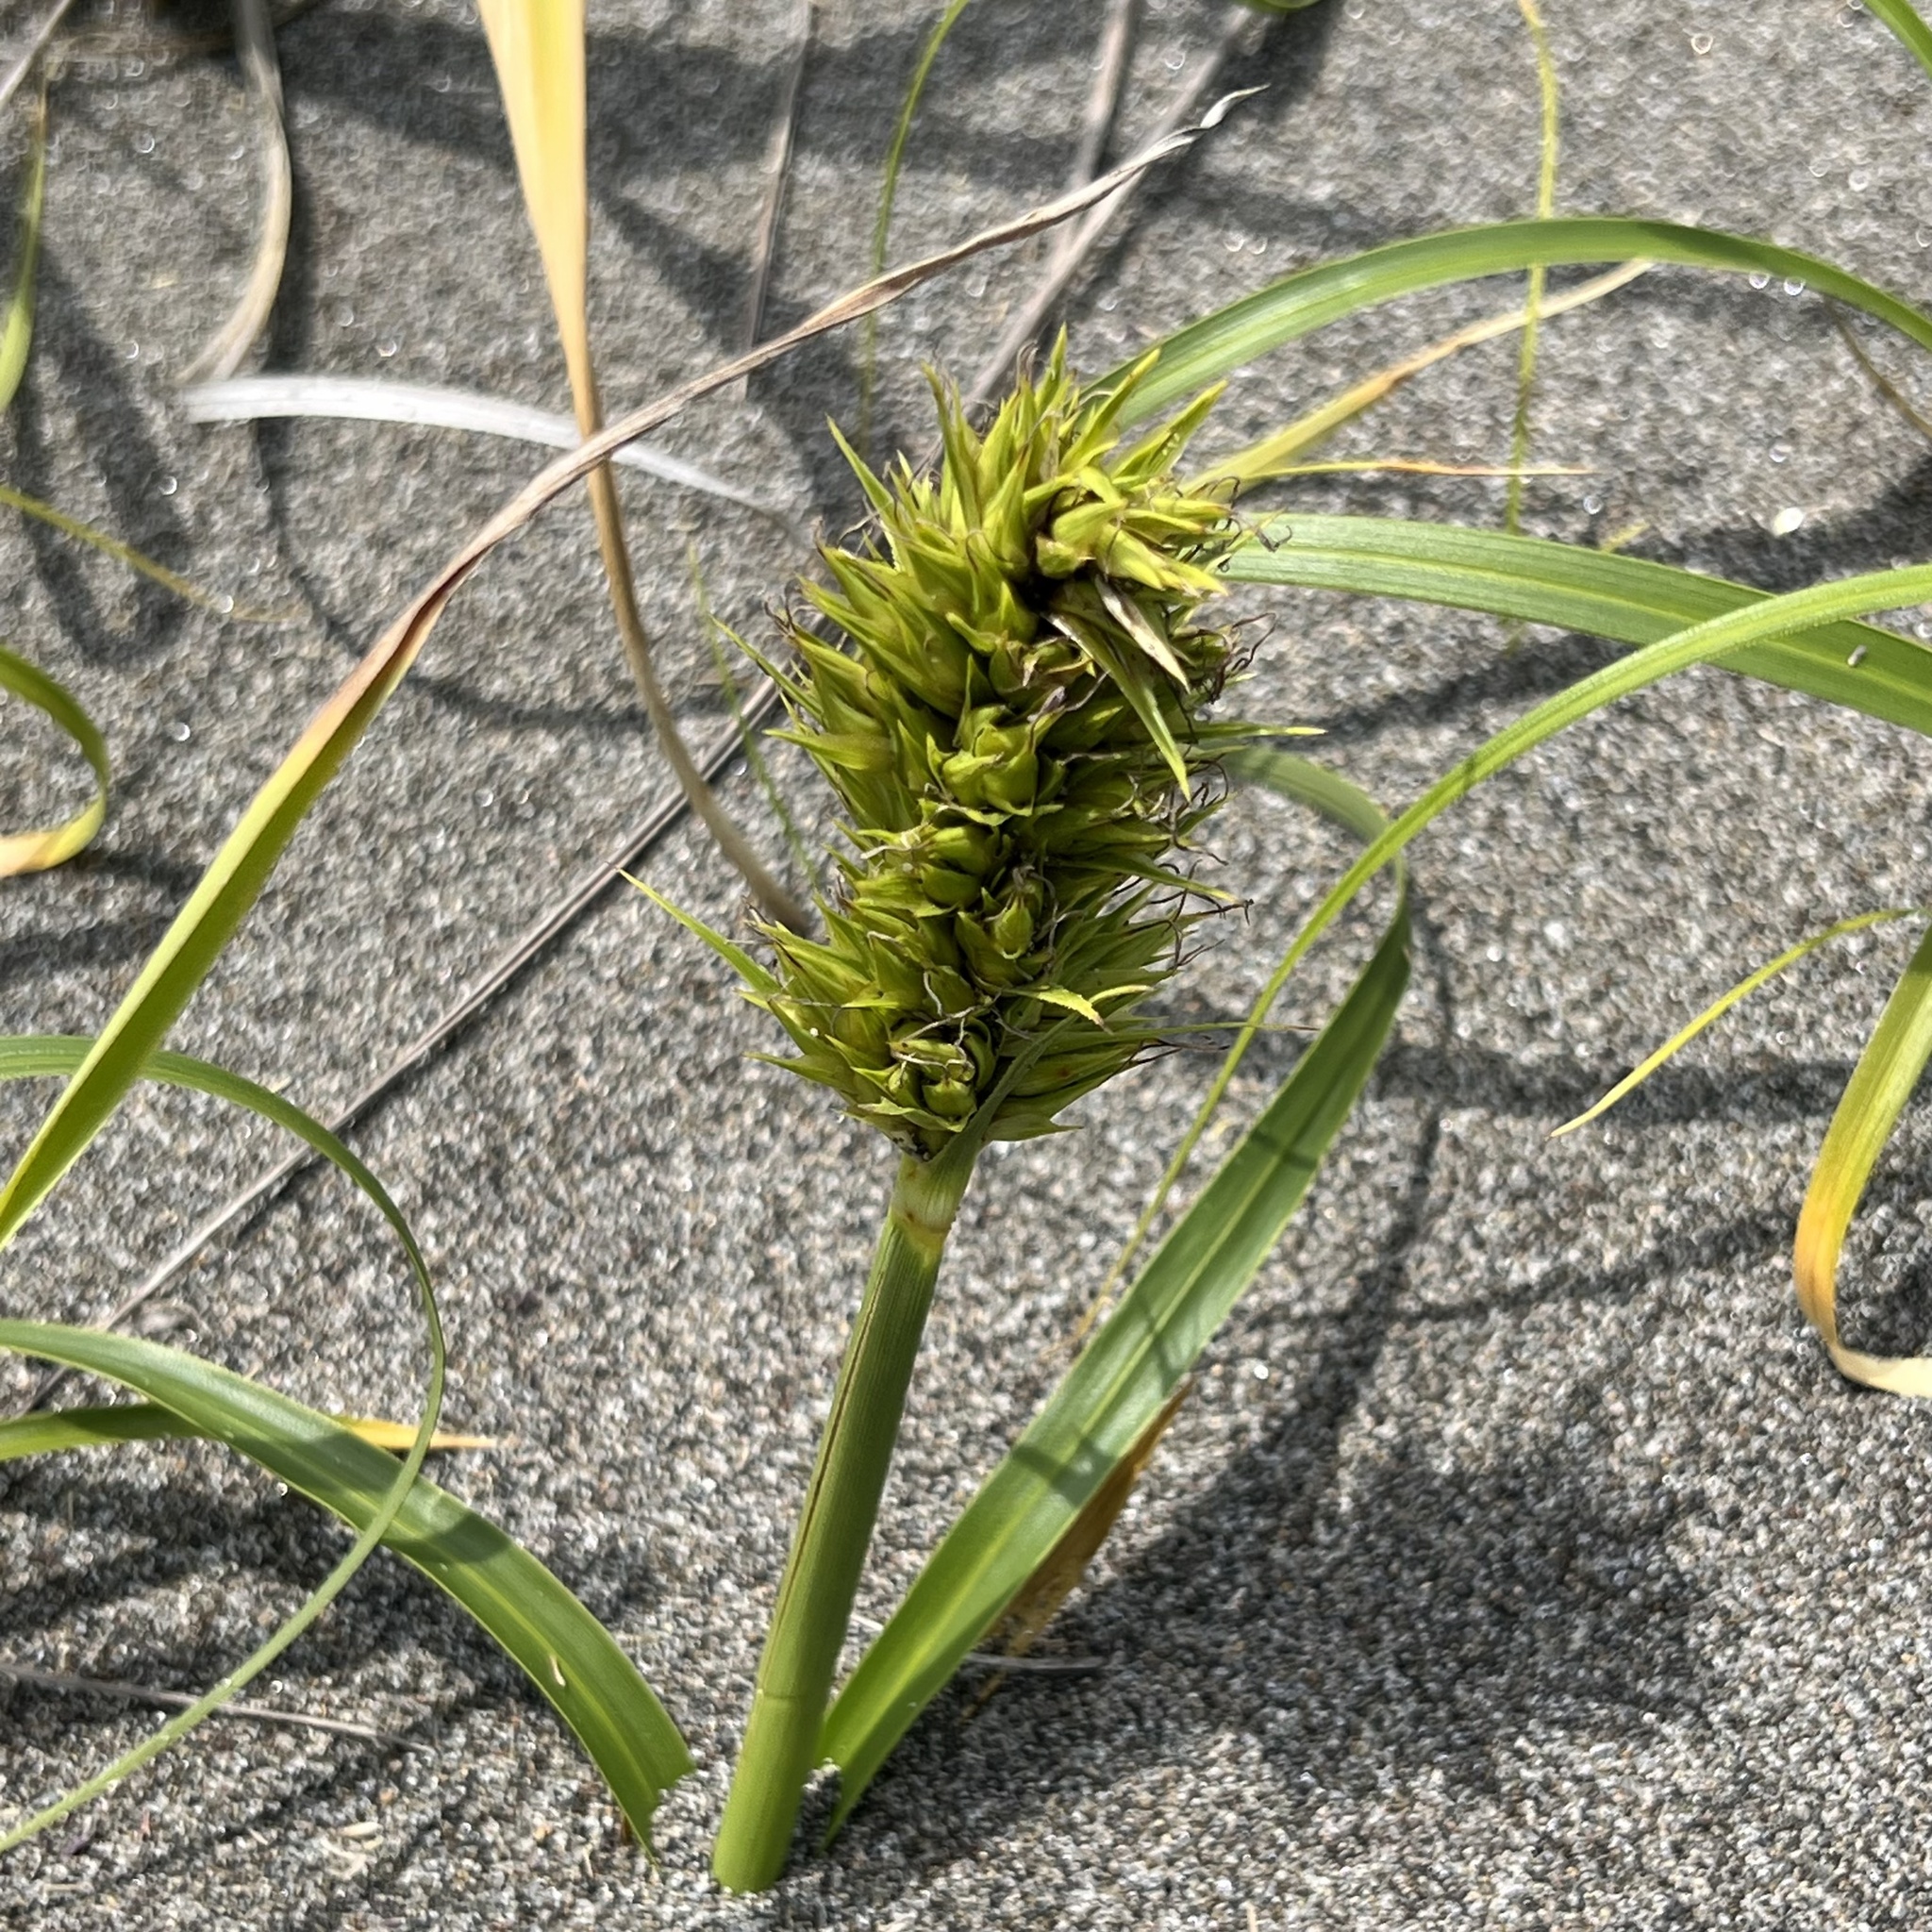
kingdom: Plantae
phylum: Tracheophyta
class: Liliopsida
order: Poales
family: Cyperaceae
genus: Carex
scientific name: Carex kobomugi
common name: Japanese sedge
